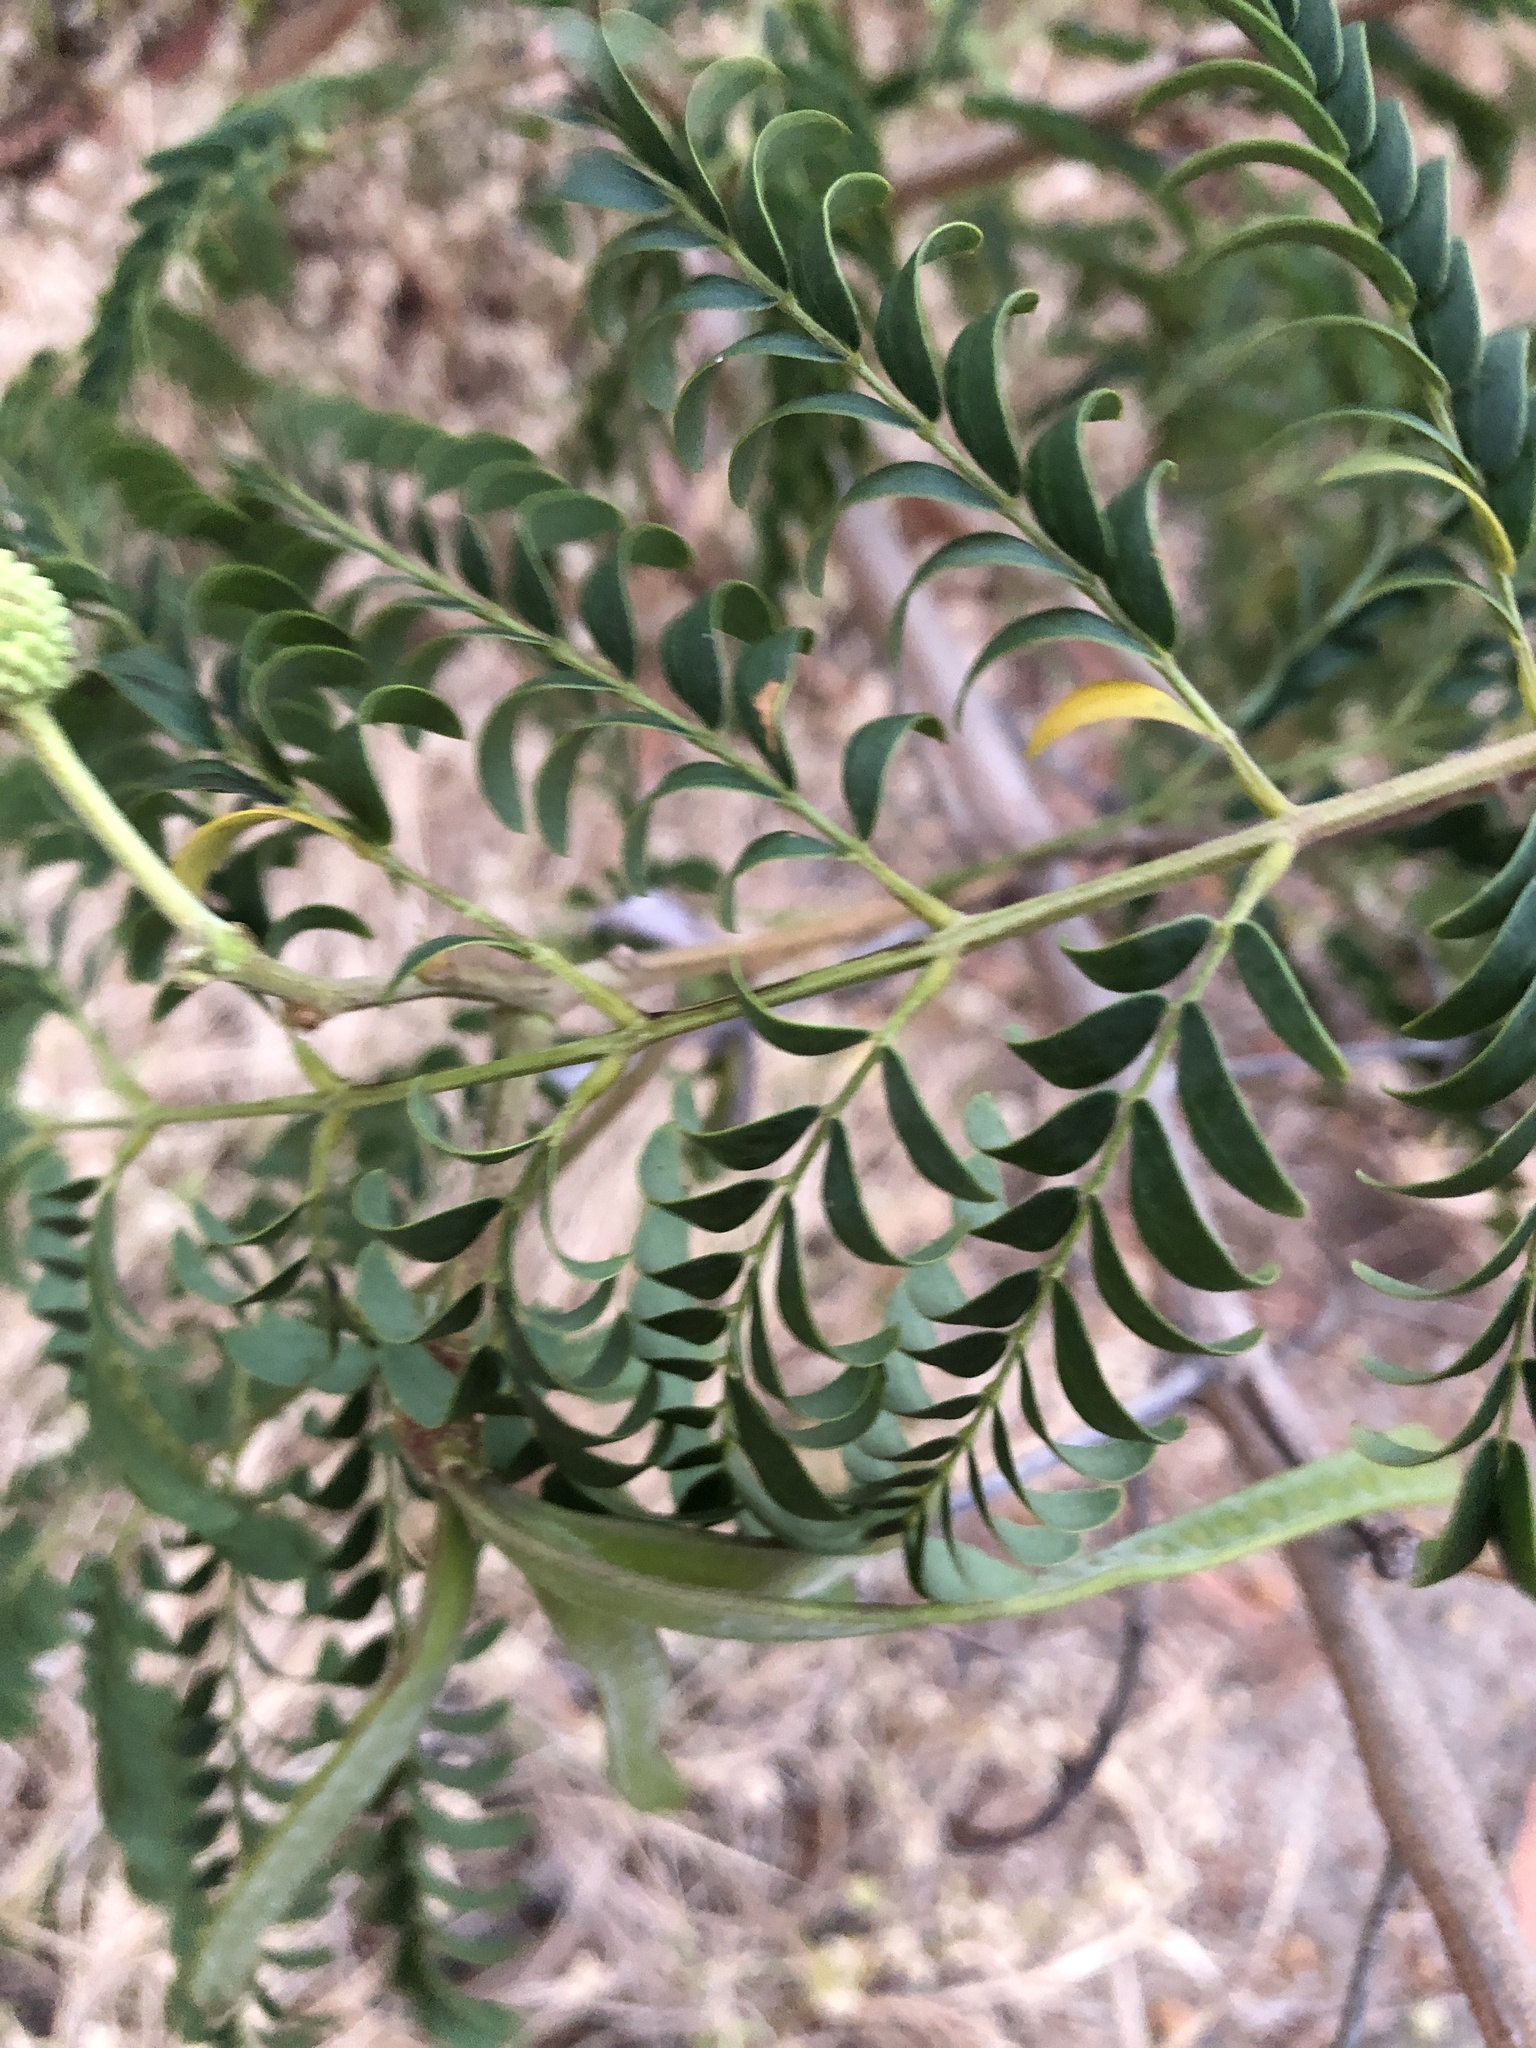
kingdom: Plantae
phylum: Tracheophyta
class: Magnoliopsida
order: Fabales
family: Fabaceae
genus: Leucaena
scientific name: Leucaena leucocephala
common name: White leadtree
